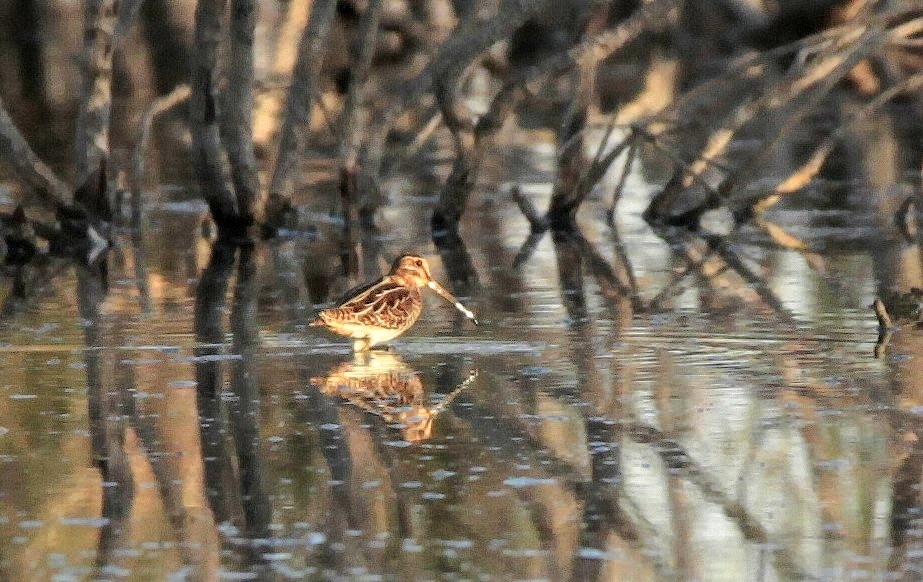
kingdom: Animalia
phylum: Chordata
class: Aves
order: Charadriiformes
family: Scolopacidae
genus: Gallinago
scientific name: Gallinago gallinago
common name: Common snipe
